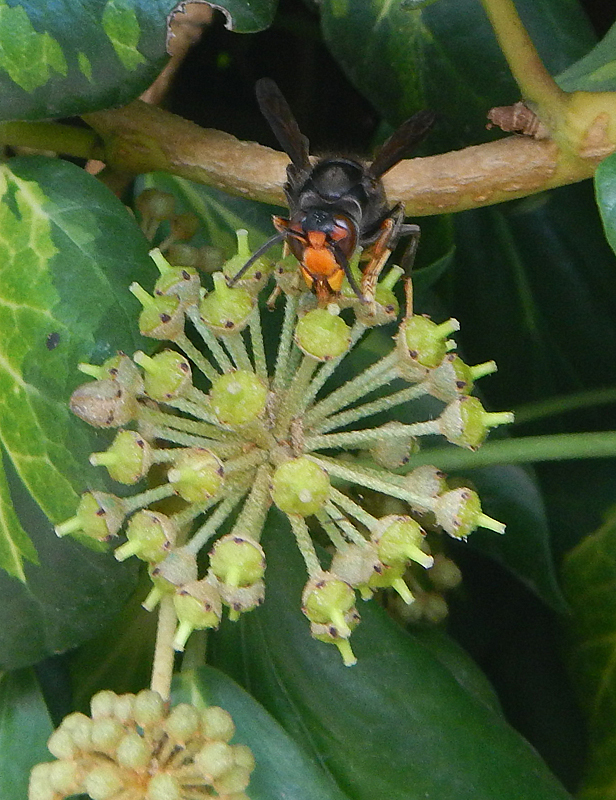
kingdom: Animalia
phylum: Arthropoda
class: Insecta
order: Hymenoptera
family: Vespidae
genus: Vespa
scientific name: Vespa velutina
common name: Asian hornet
